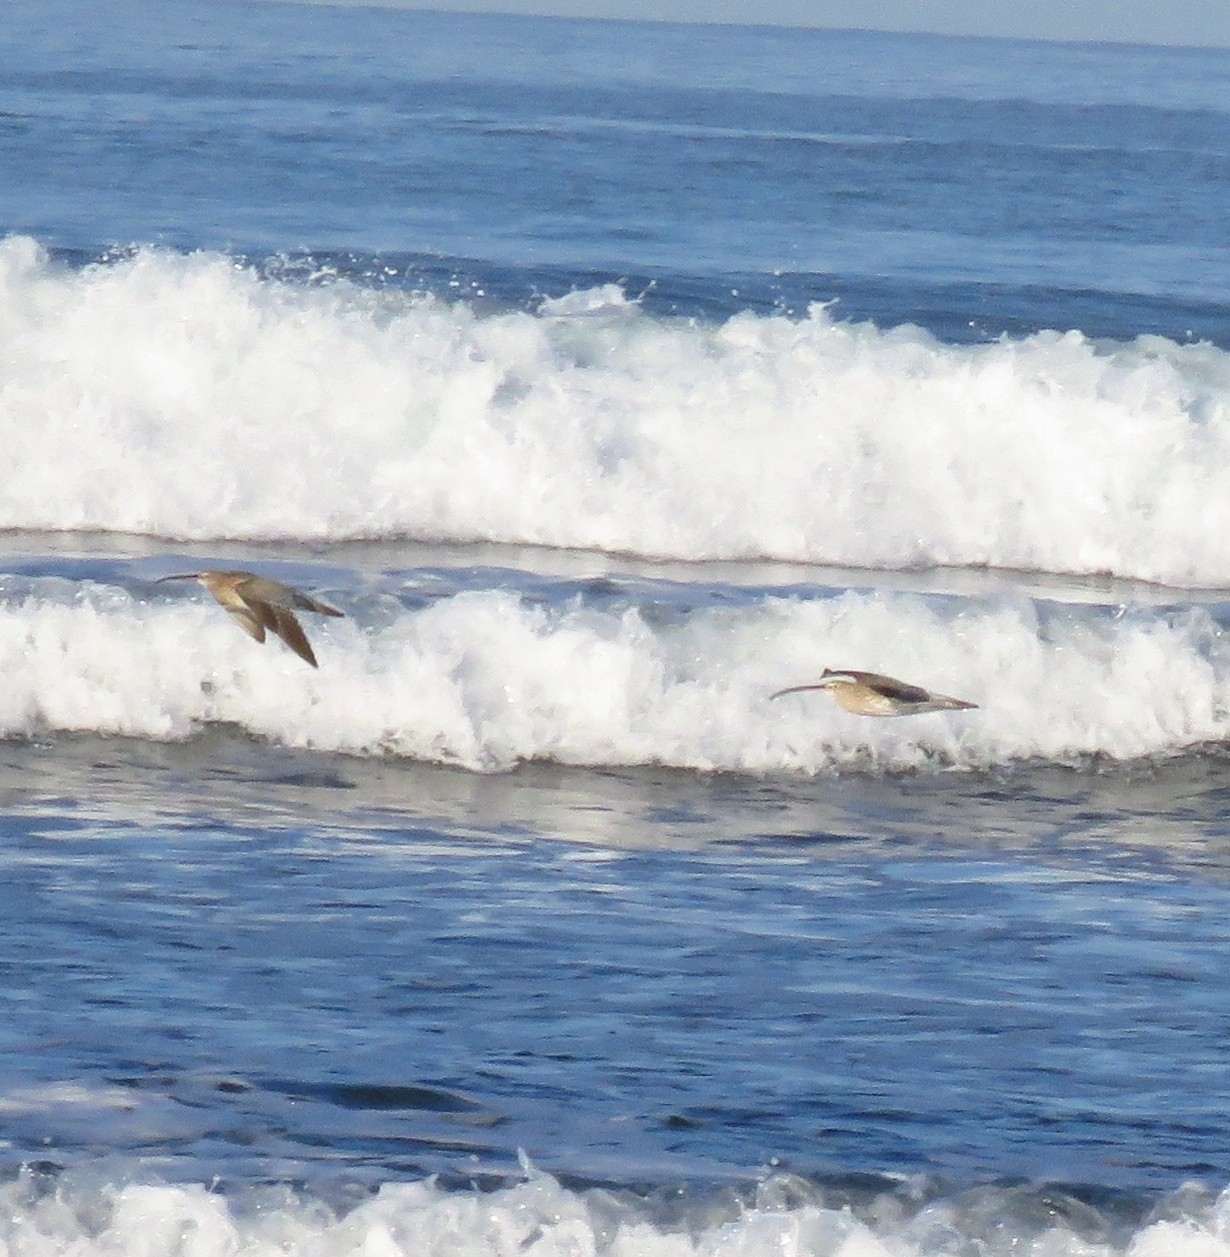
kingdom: Animalia
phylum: Chordata
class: Aves
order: Charadriiformes
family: Scolopacidae
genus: Numenius
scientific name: Numenius arquata
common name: Eurasian curlew
